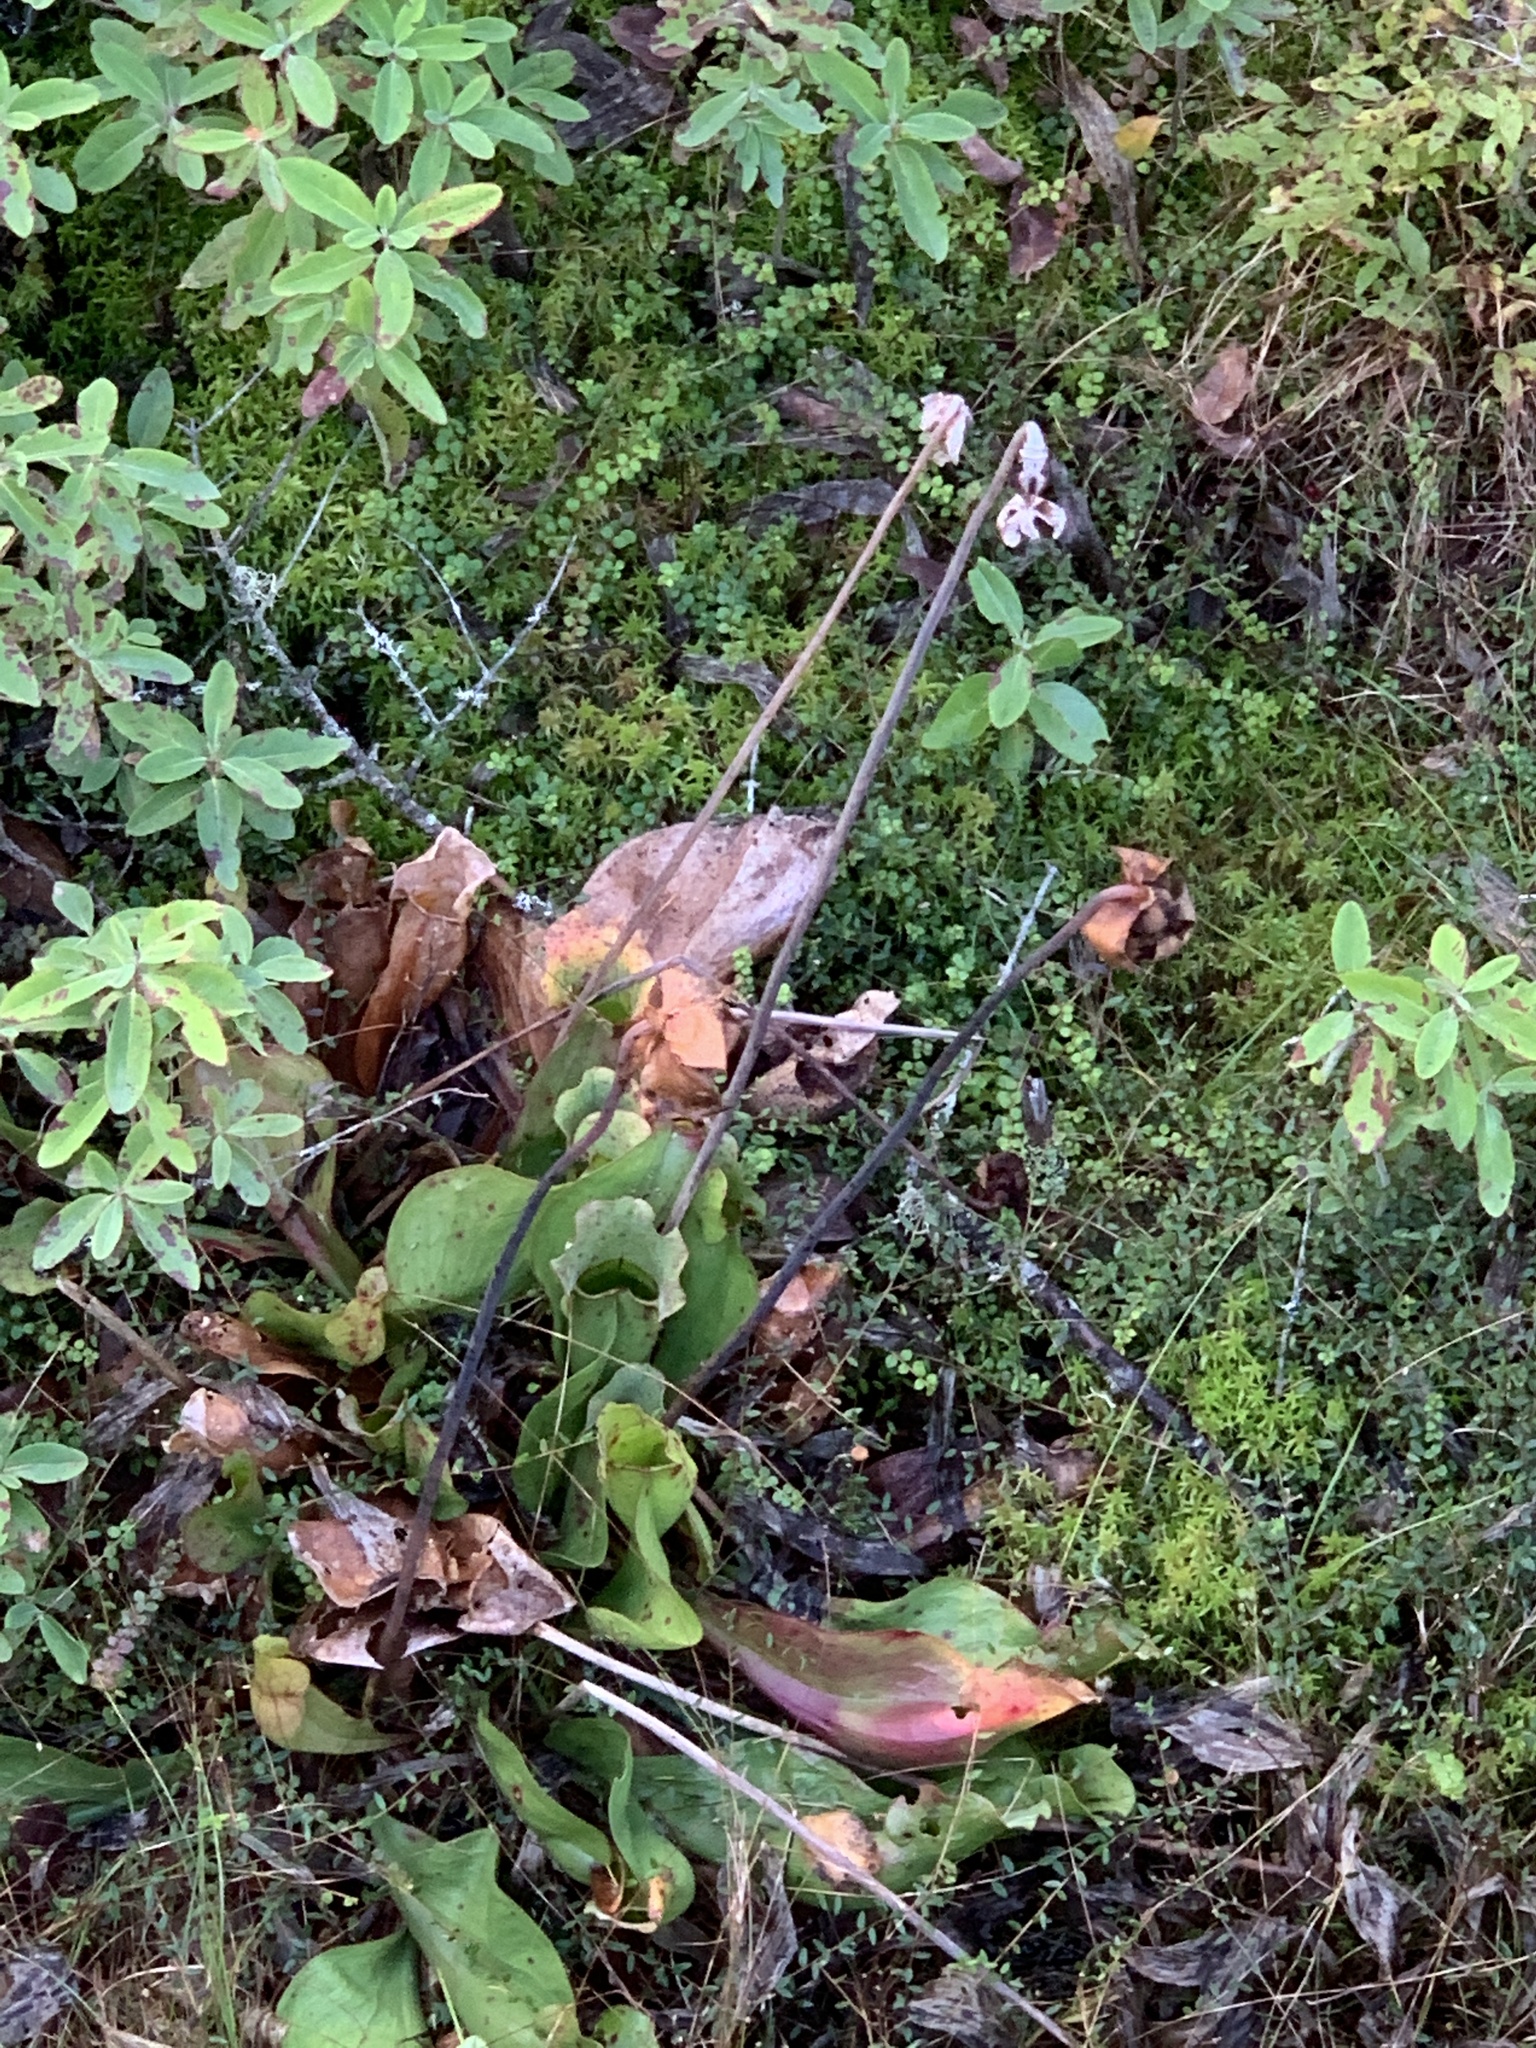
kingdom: Plantae
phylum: Tracheophyta
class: Magnoliopsida
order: Ericales
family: Sarraceniaceae
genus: Sarracenia
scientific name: Sarracenia purpurea
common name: Pitcherplant
